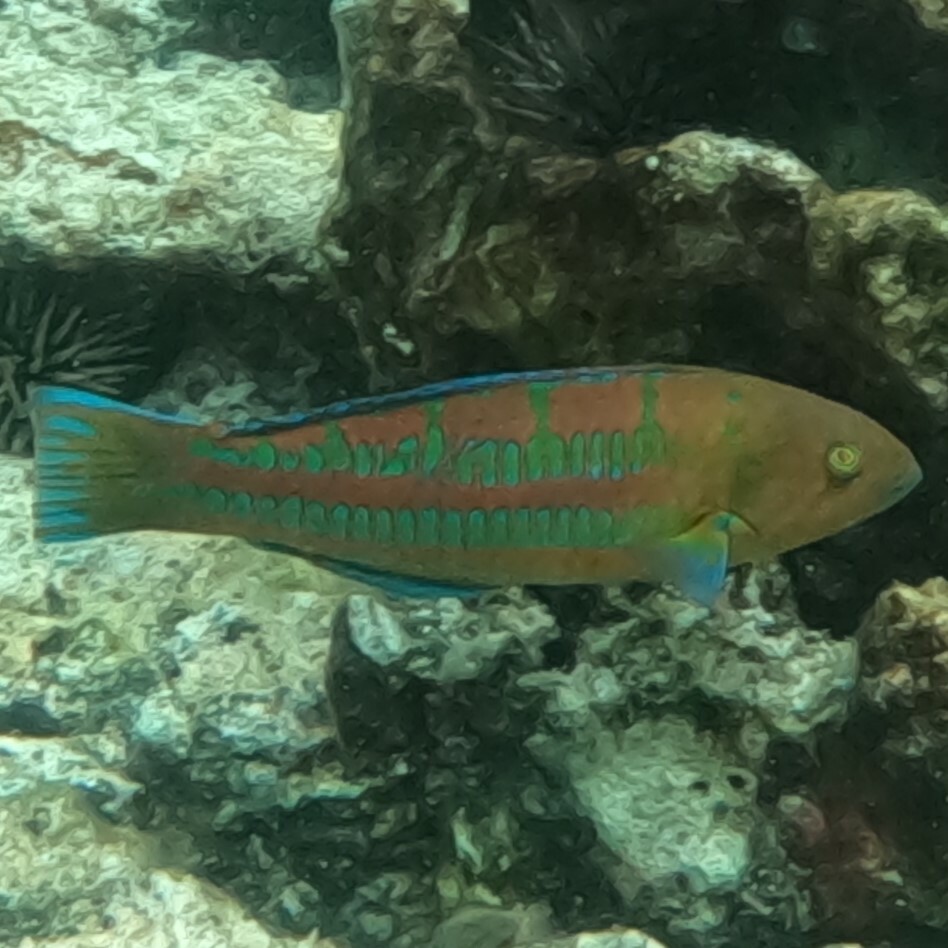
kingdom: Animalia
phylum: Chordata
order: Perciformes
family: Labridae
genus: Thalassoma
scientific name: Thalassoma trilobatum
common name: Christmas wrasse
